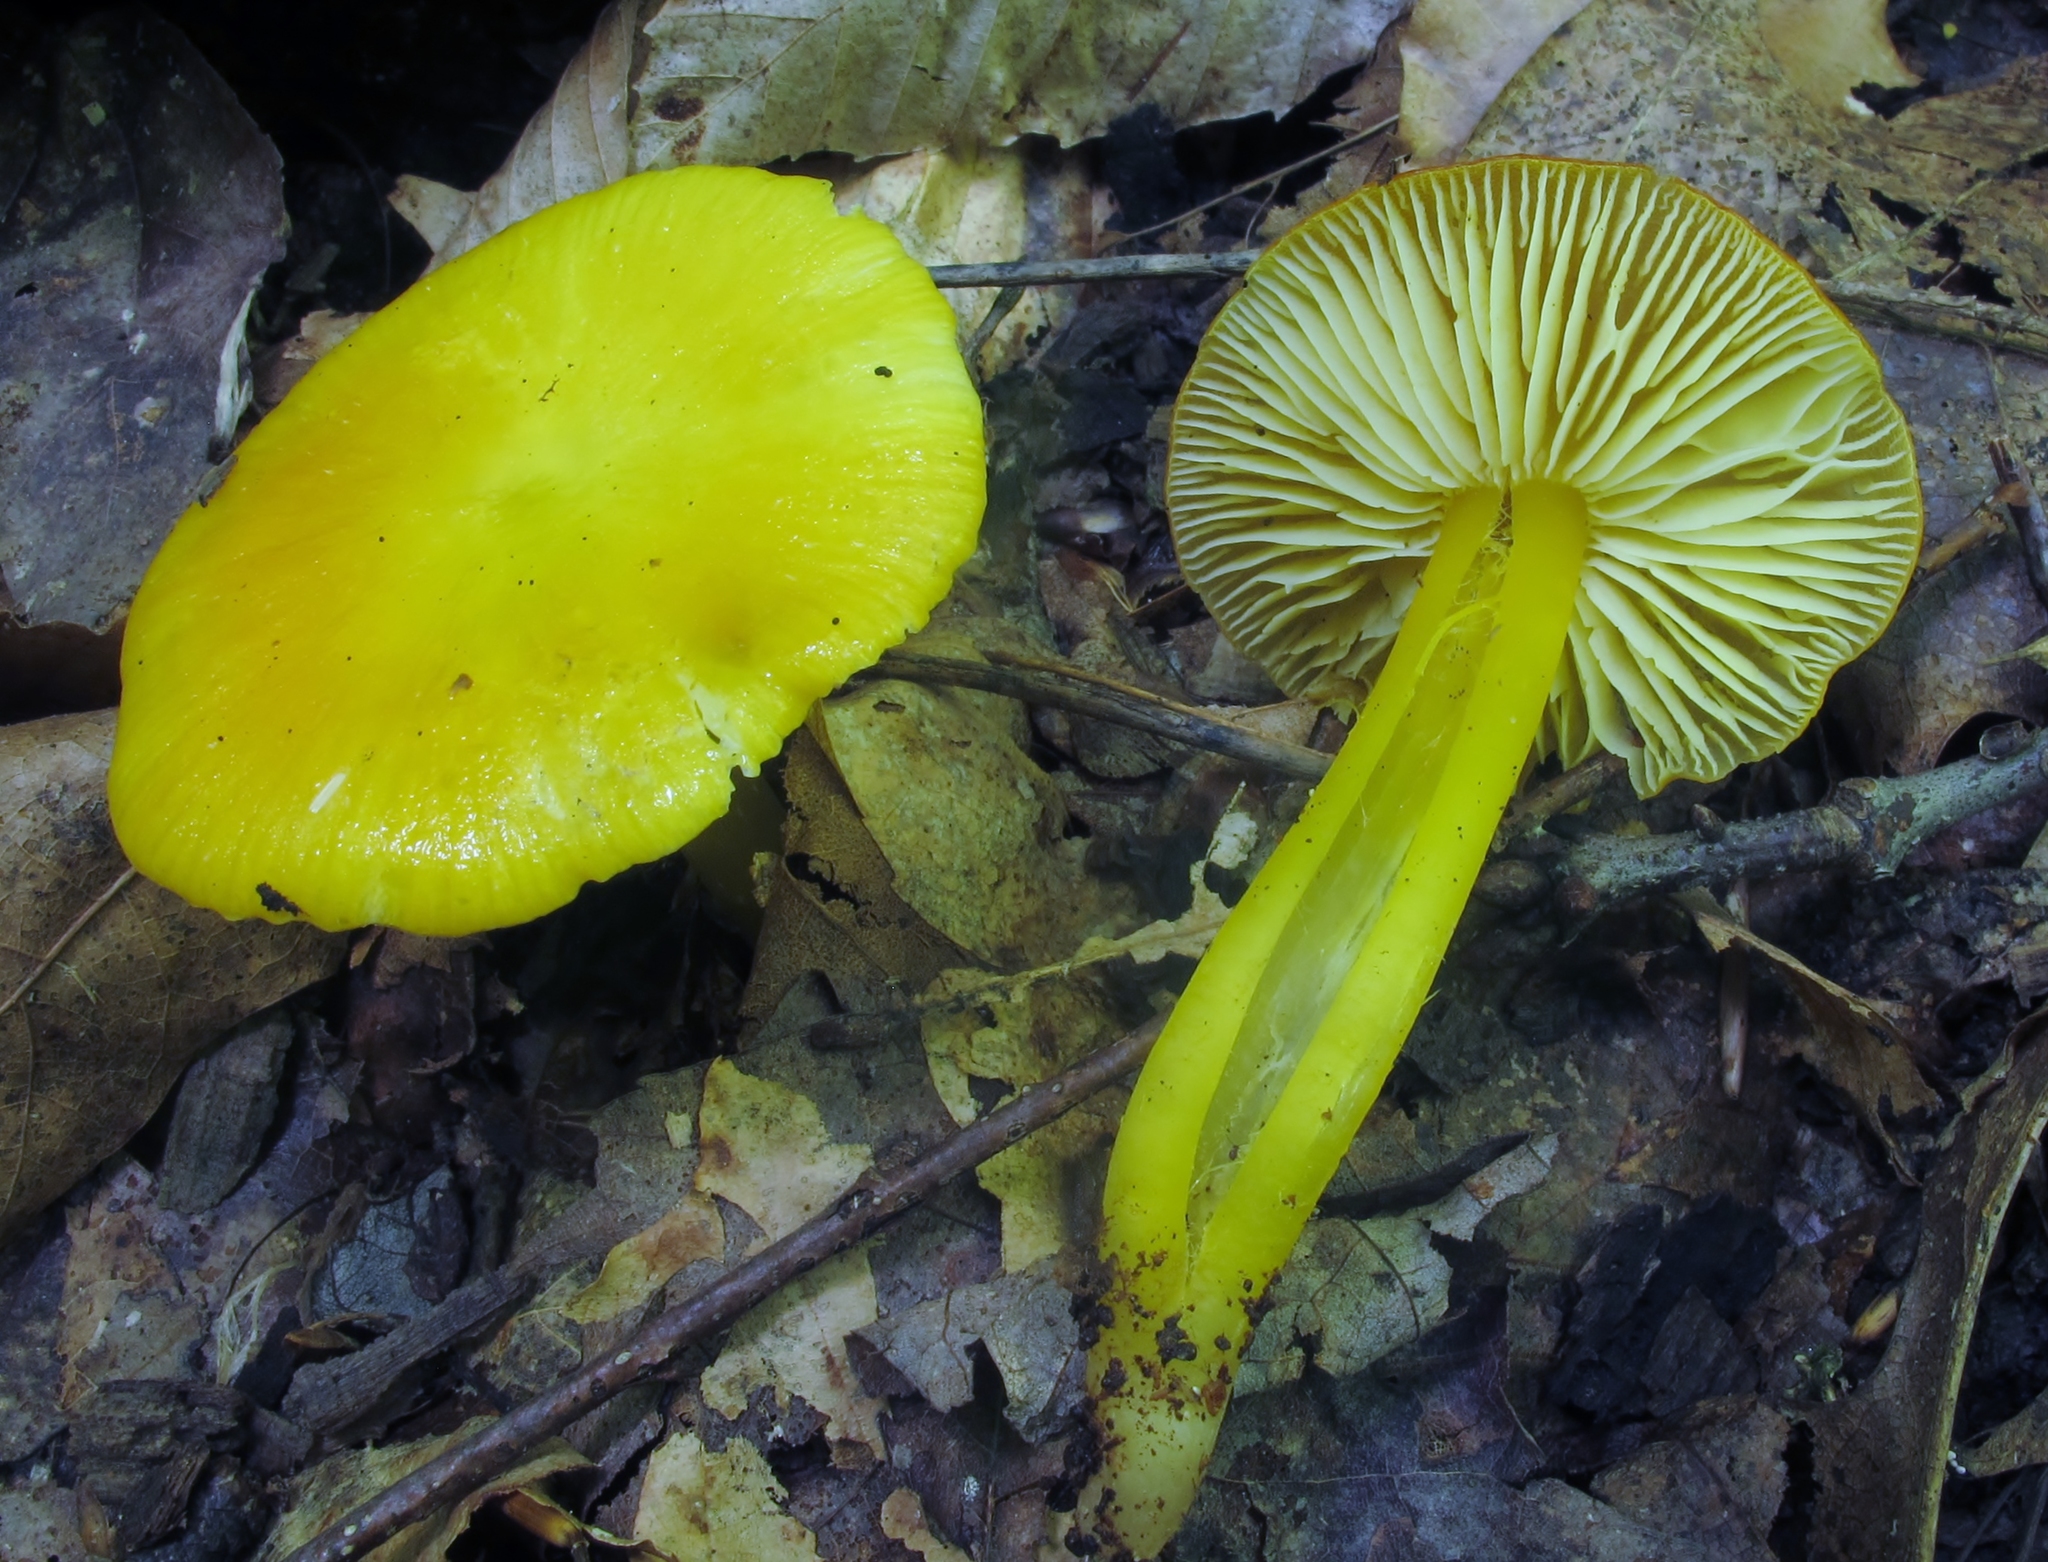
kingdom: Fungi
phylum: Basidiomycota
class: Agaricomycetes
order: Agaricales
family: Hygrophoraceae
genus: Hygrocybe
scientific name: Hygrocybe flavescens
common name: Golden waxy cap
